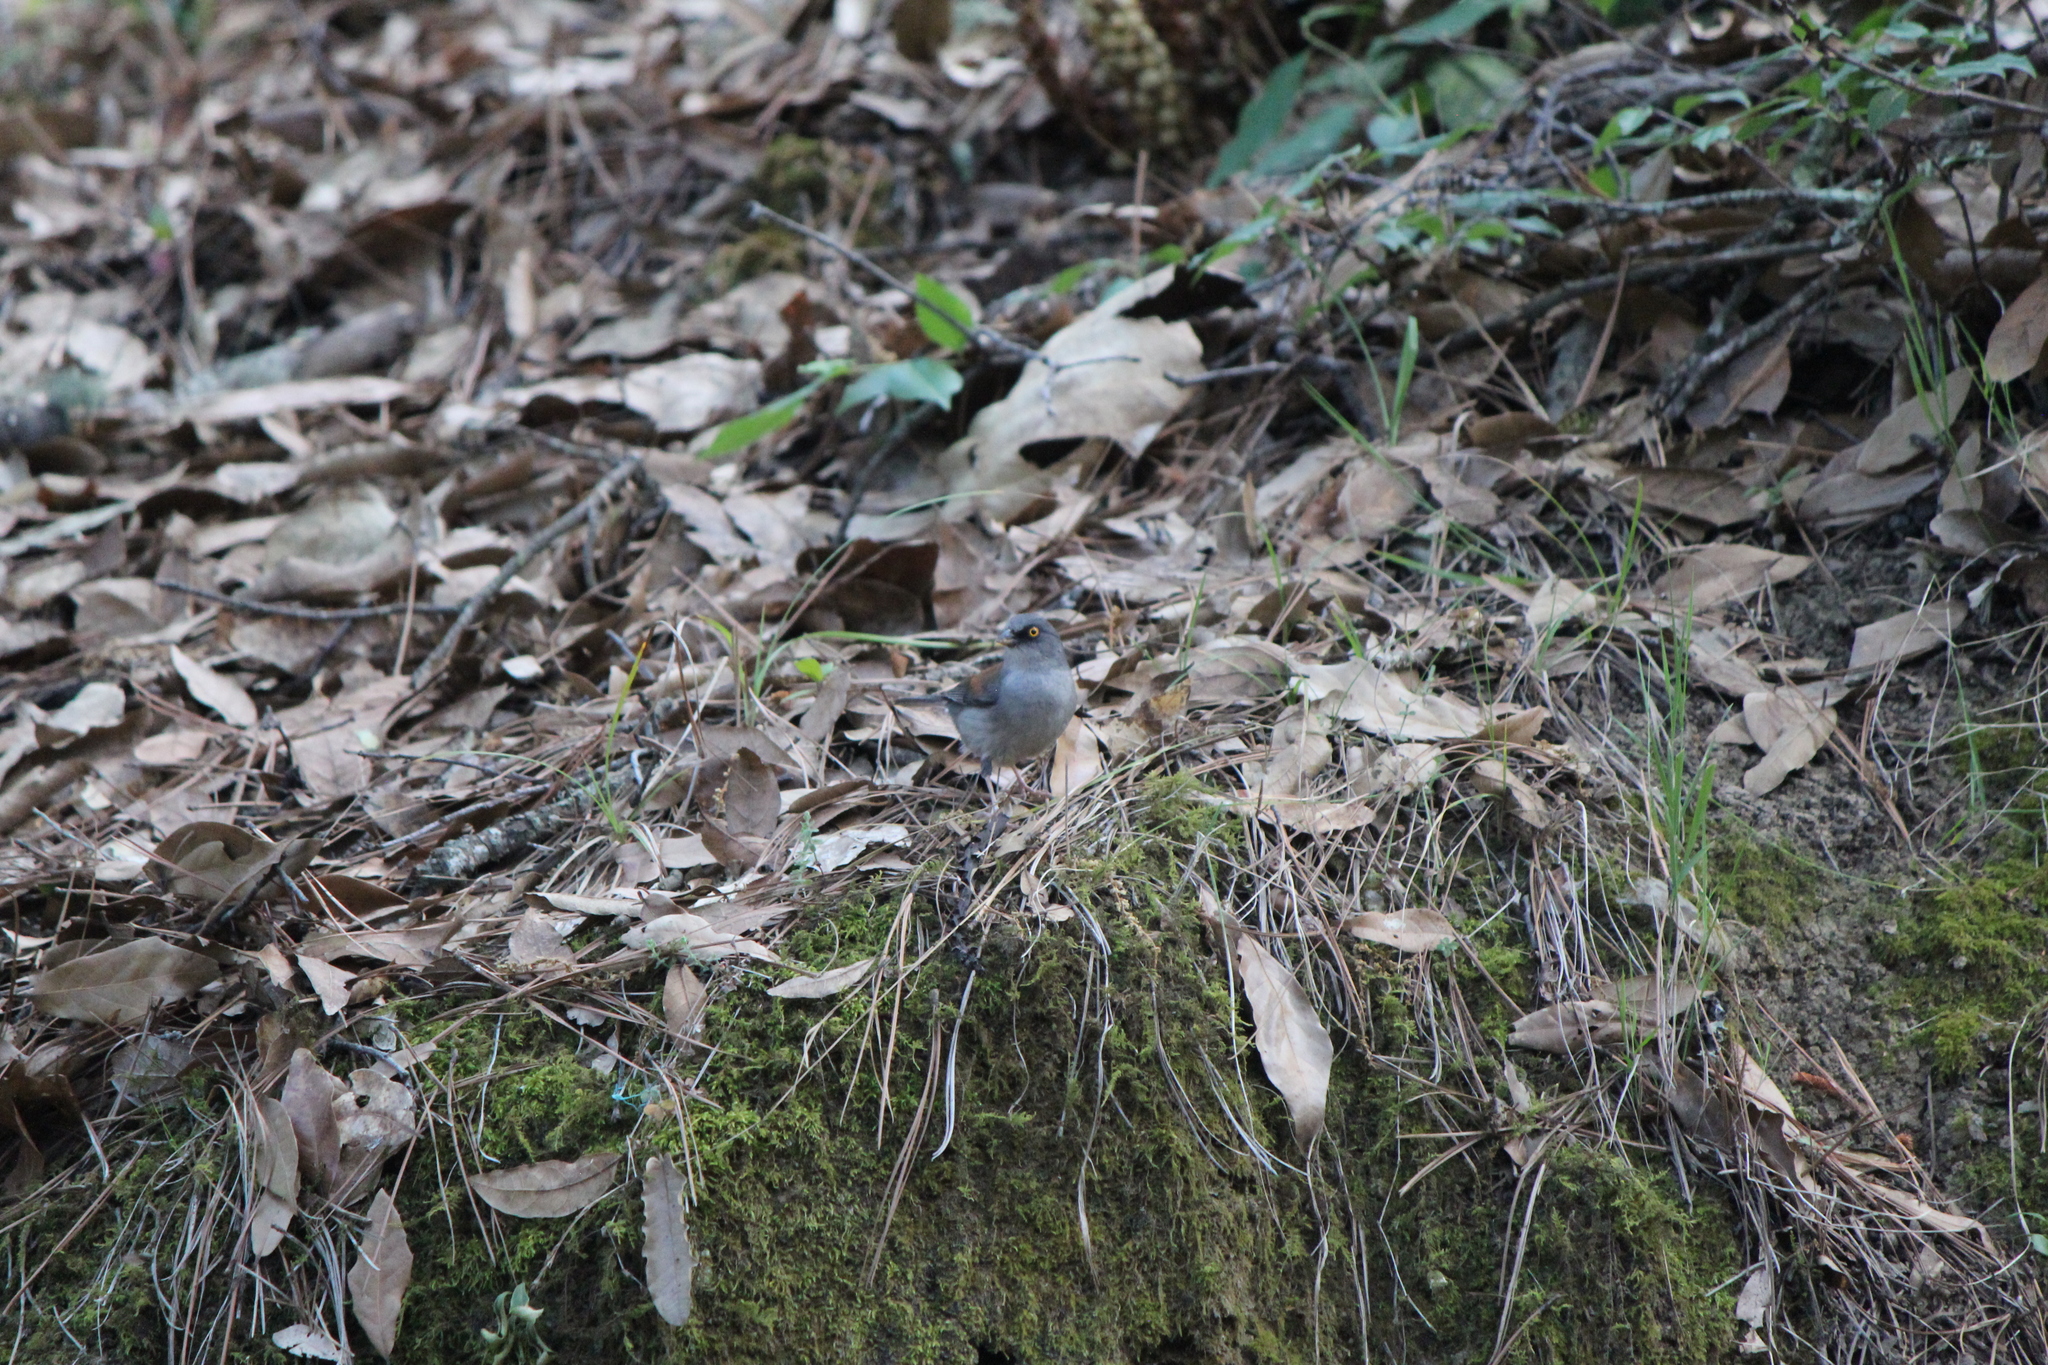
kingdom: Animalia
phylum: Chordata
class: Aves
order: Passeriformes
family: Passerellidae
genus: Junco
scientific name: Junco phaeonotus
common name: Yellow-eyed junco
